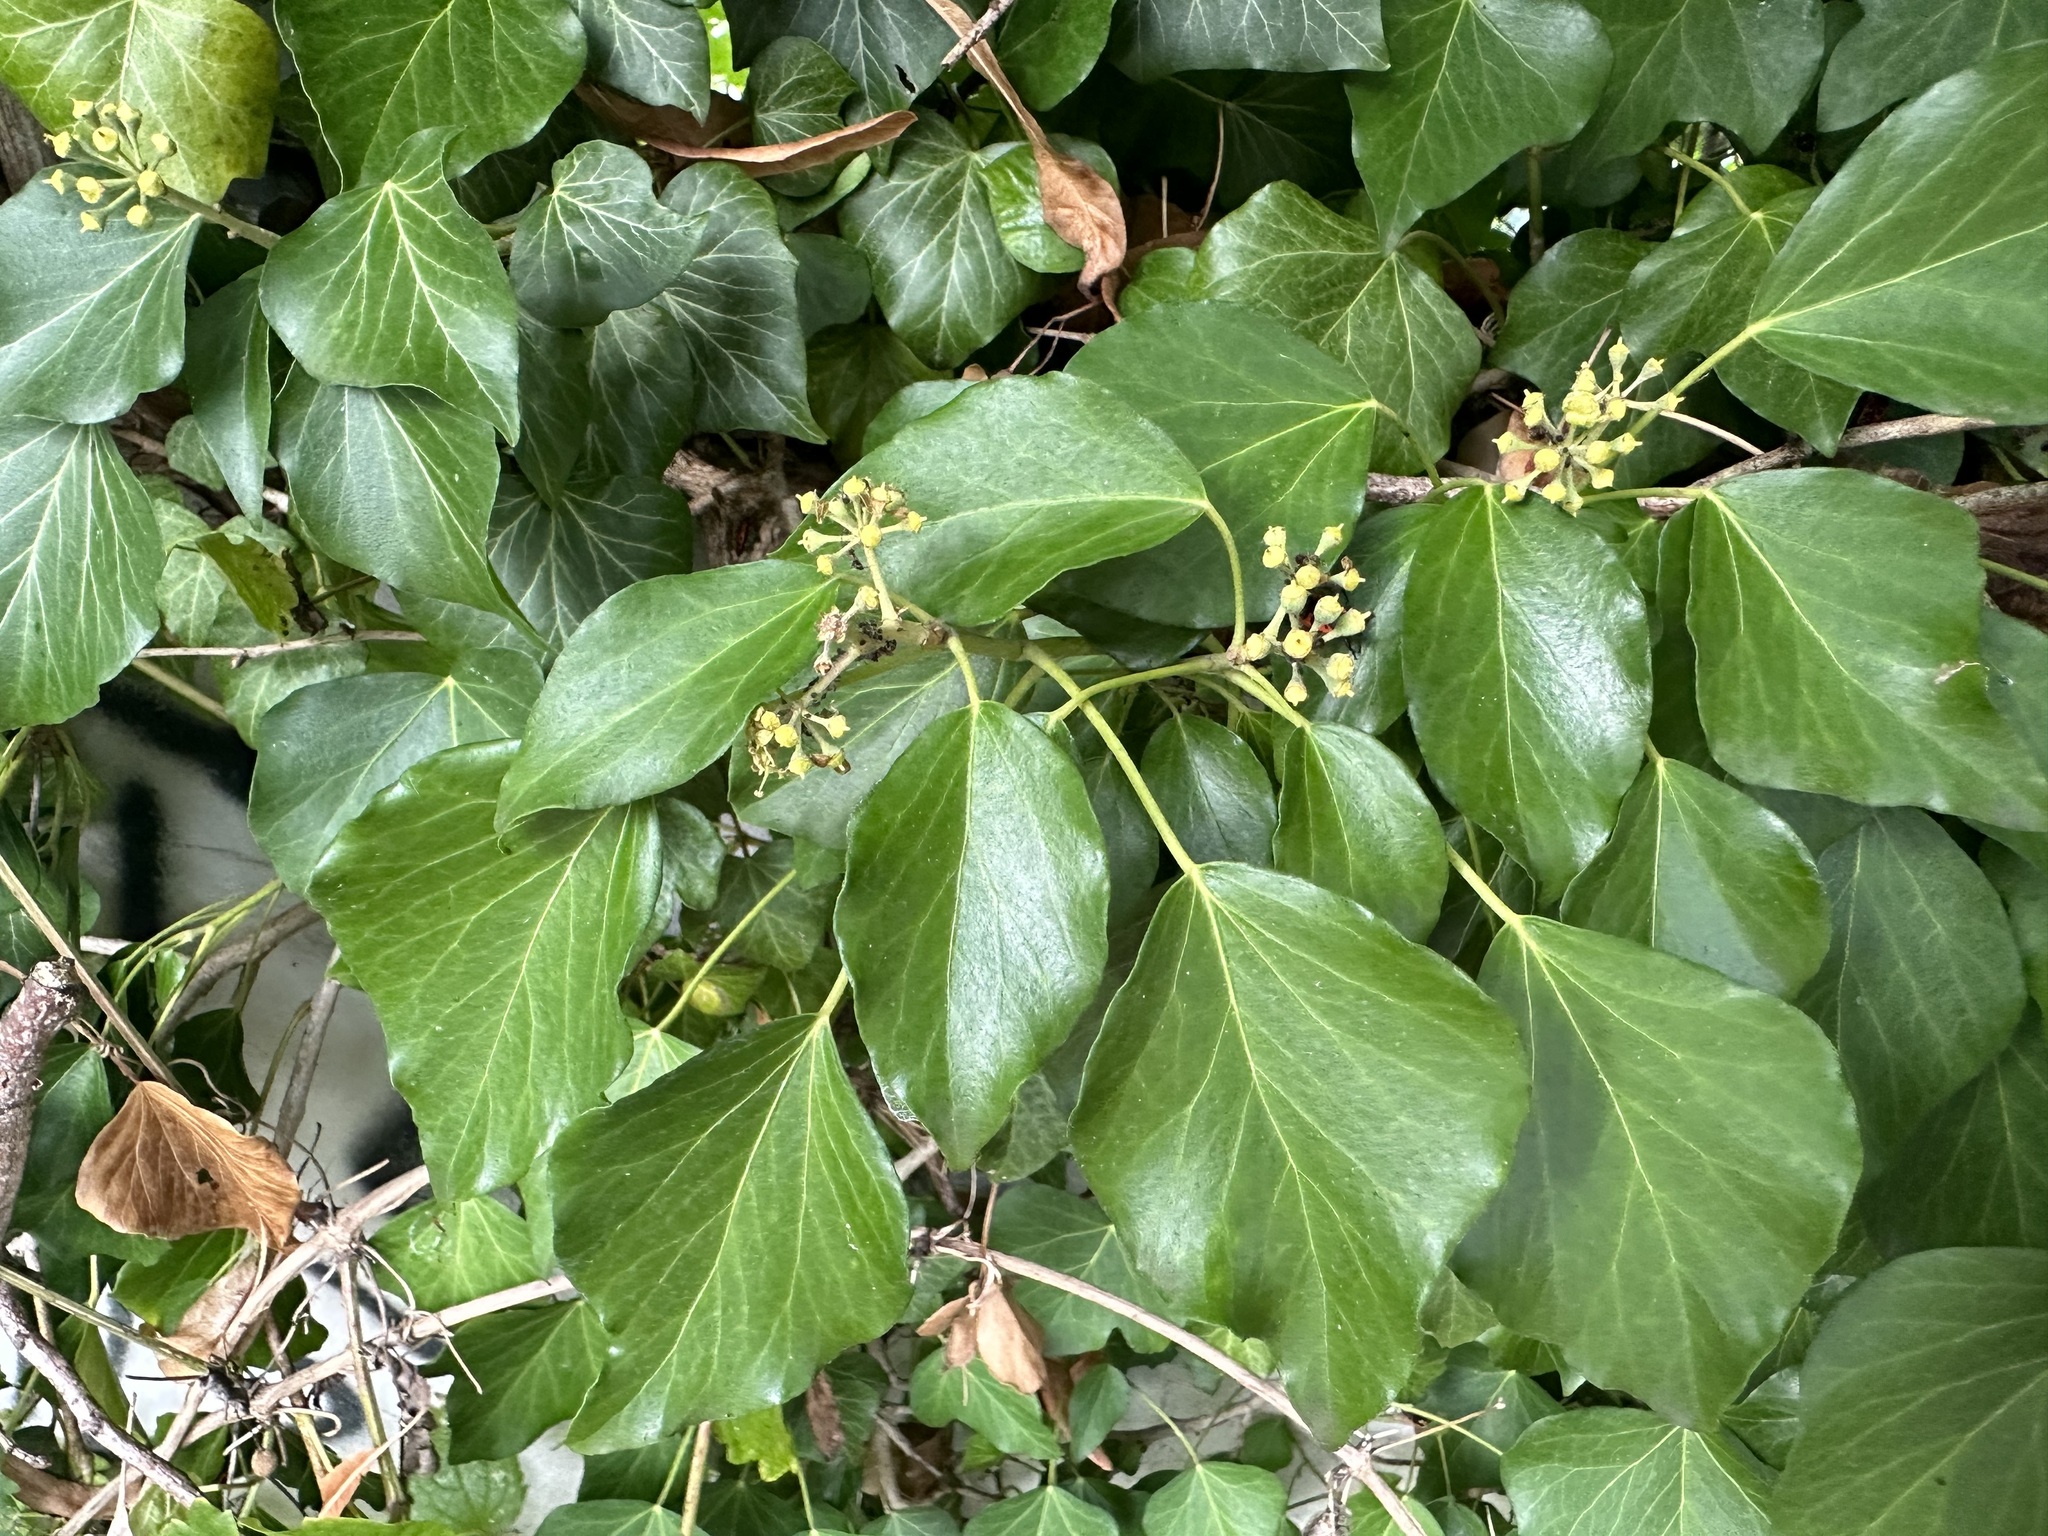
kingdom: Plantae
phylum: Tracheophyta
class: Magnoliopsida
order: Apiales
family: Araliaceae
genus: Hedera
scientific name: Hedera helix
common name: Ivy
